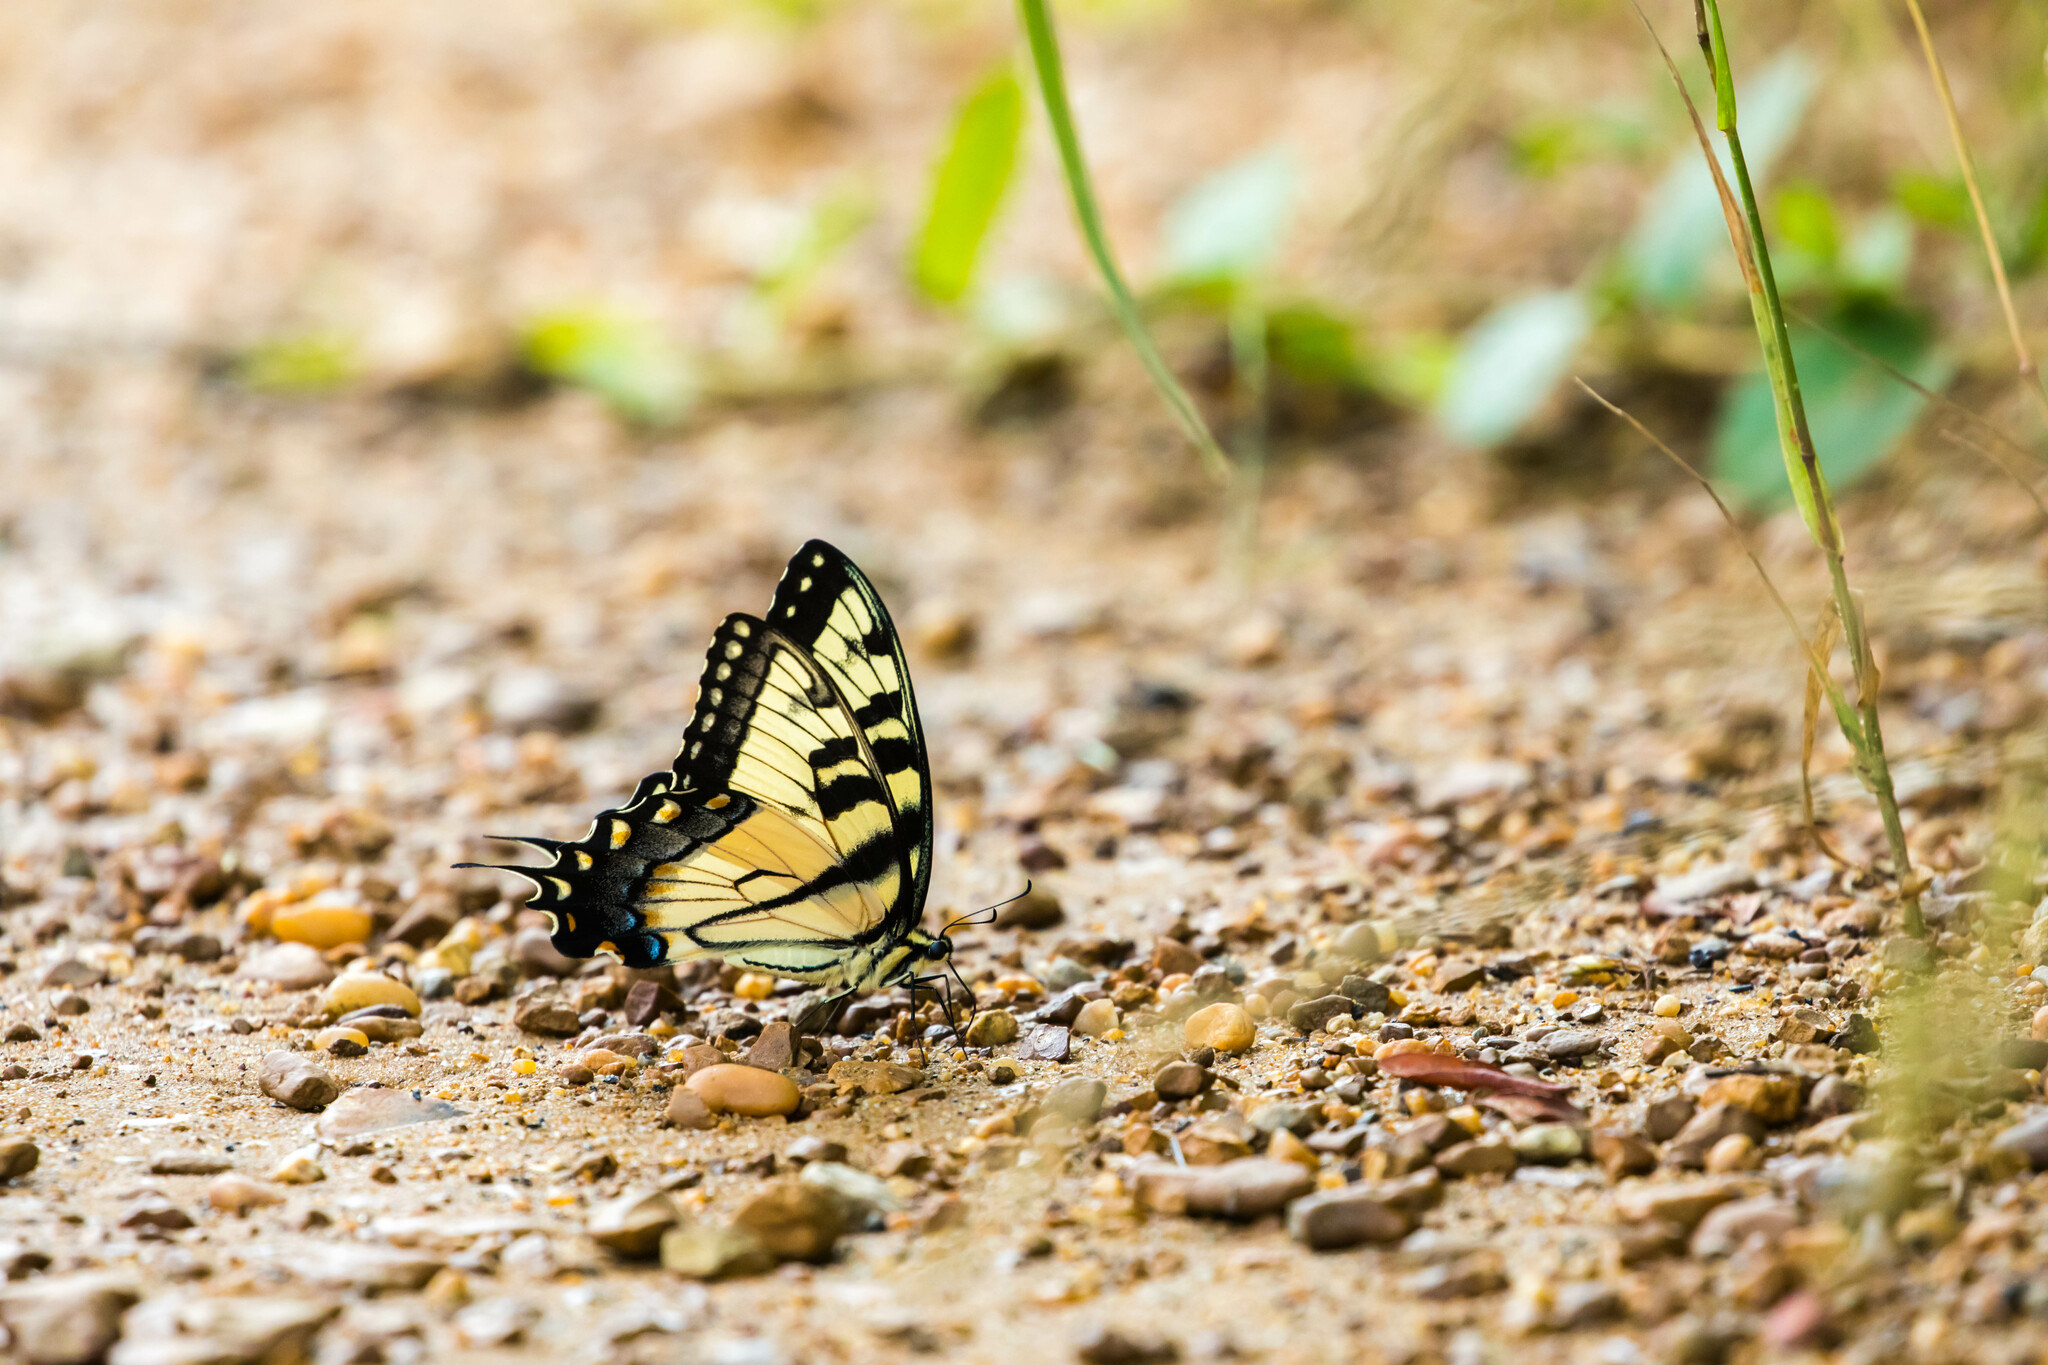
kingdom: Animalia
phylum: Arthropoda
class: Insecta
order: Lepidoptera
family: Papilionidae
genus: Papilio
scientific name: Papilio glaucus
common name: Tiger swallowtail
